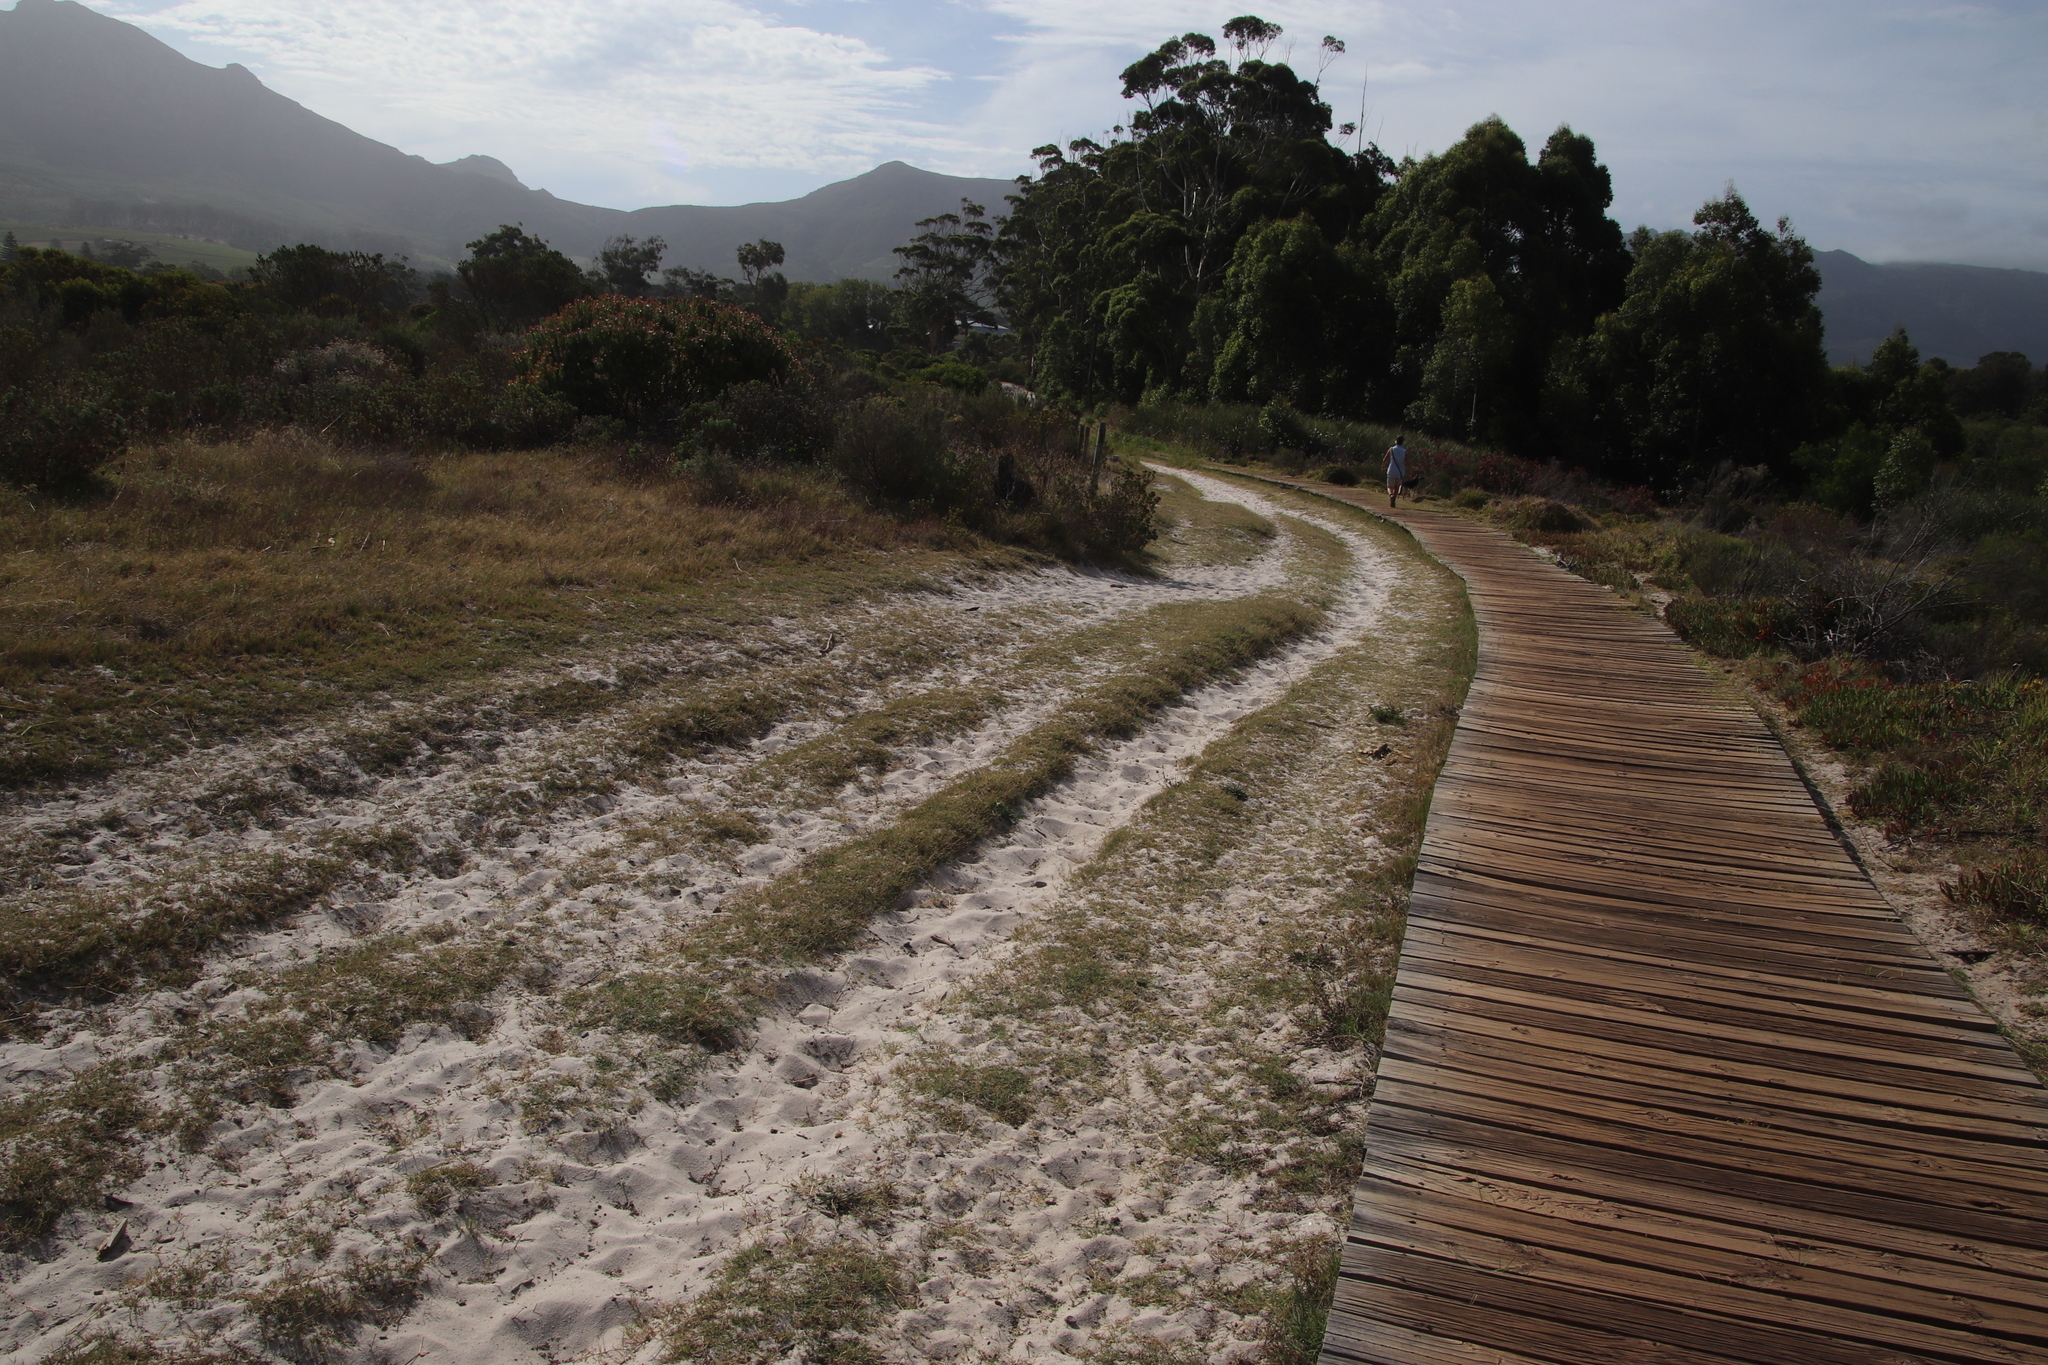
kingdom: Plantae
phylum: Tracheophyta
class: Liliopsida
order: Poales
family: Poaceae
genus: Cynodon
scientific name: Cynodon dactylon
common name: Bermuda grass
